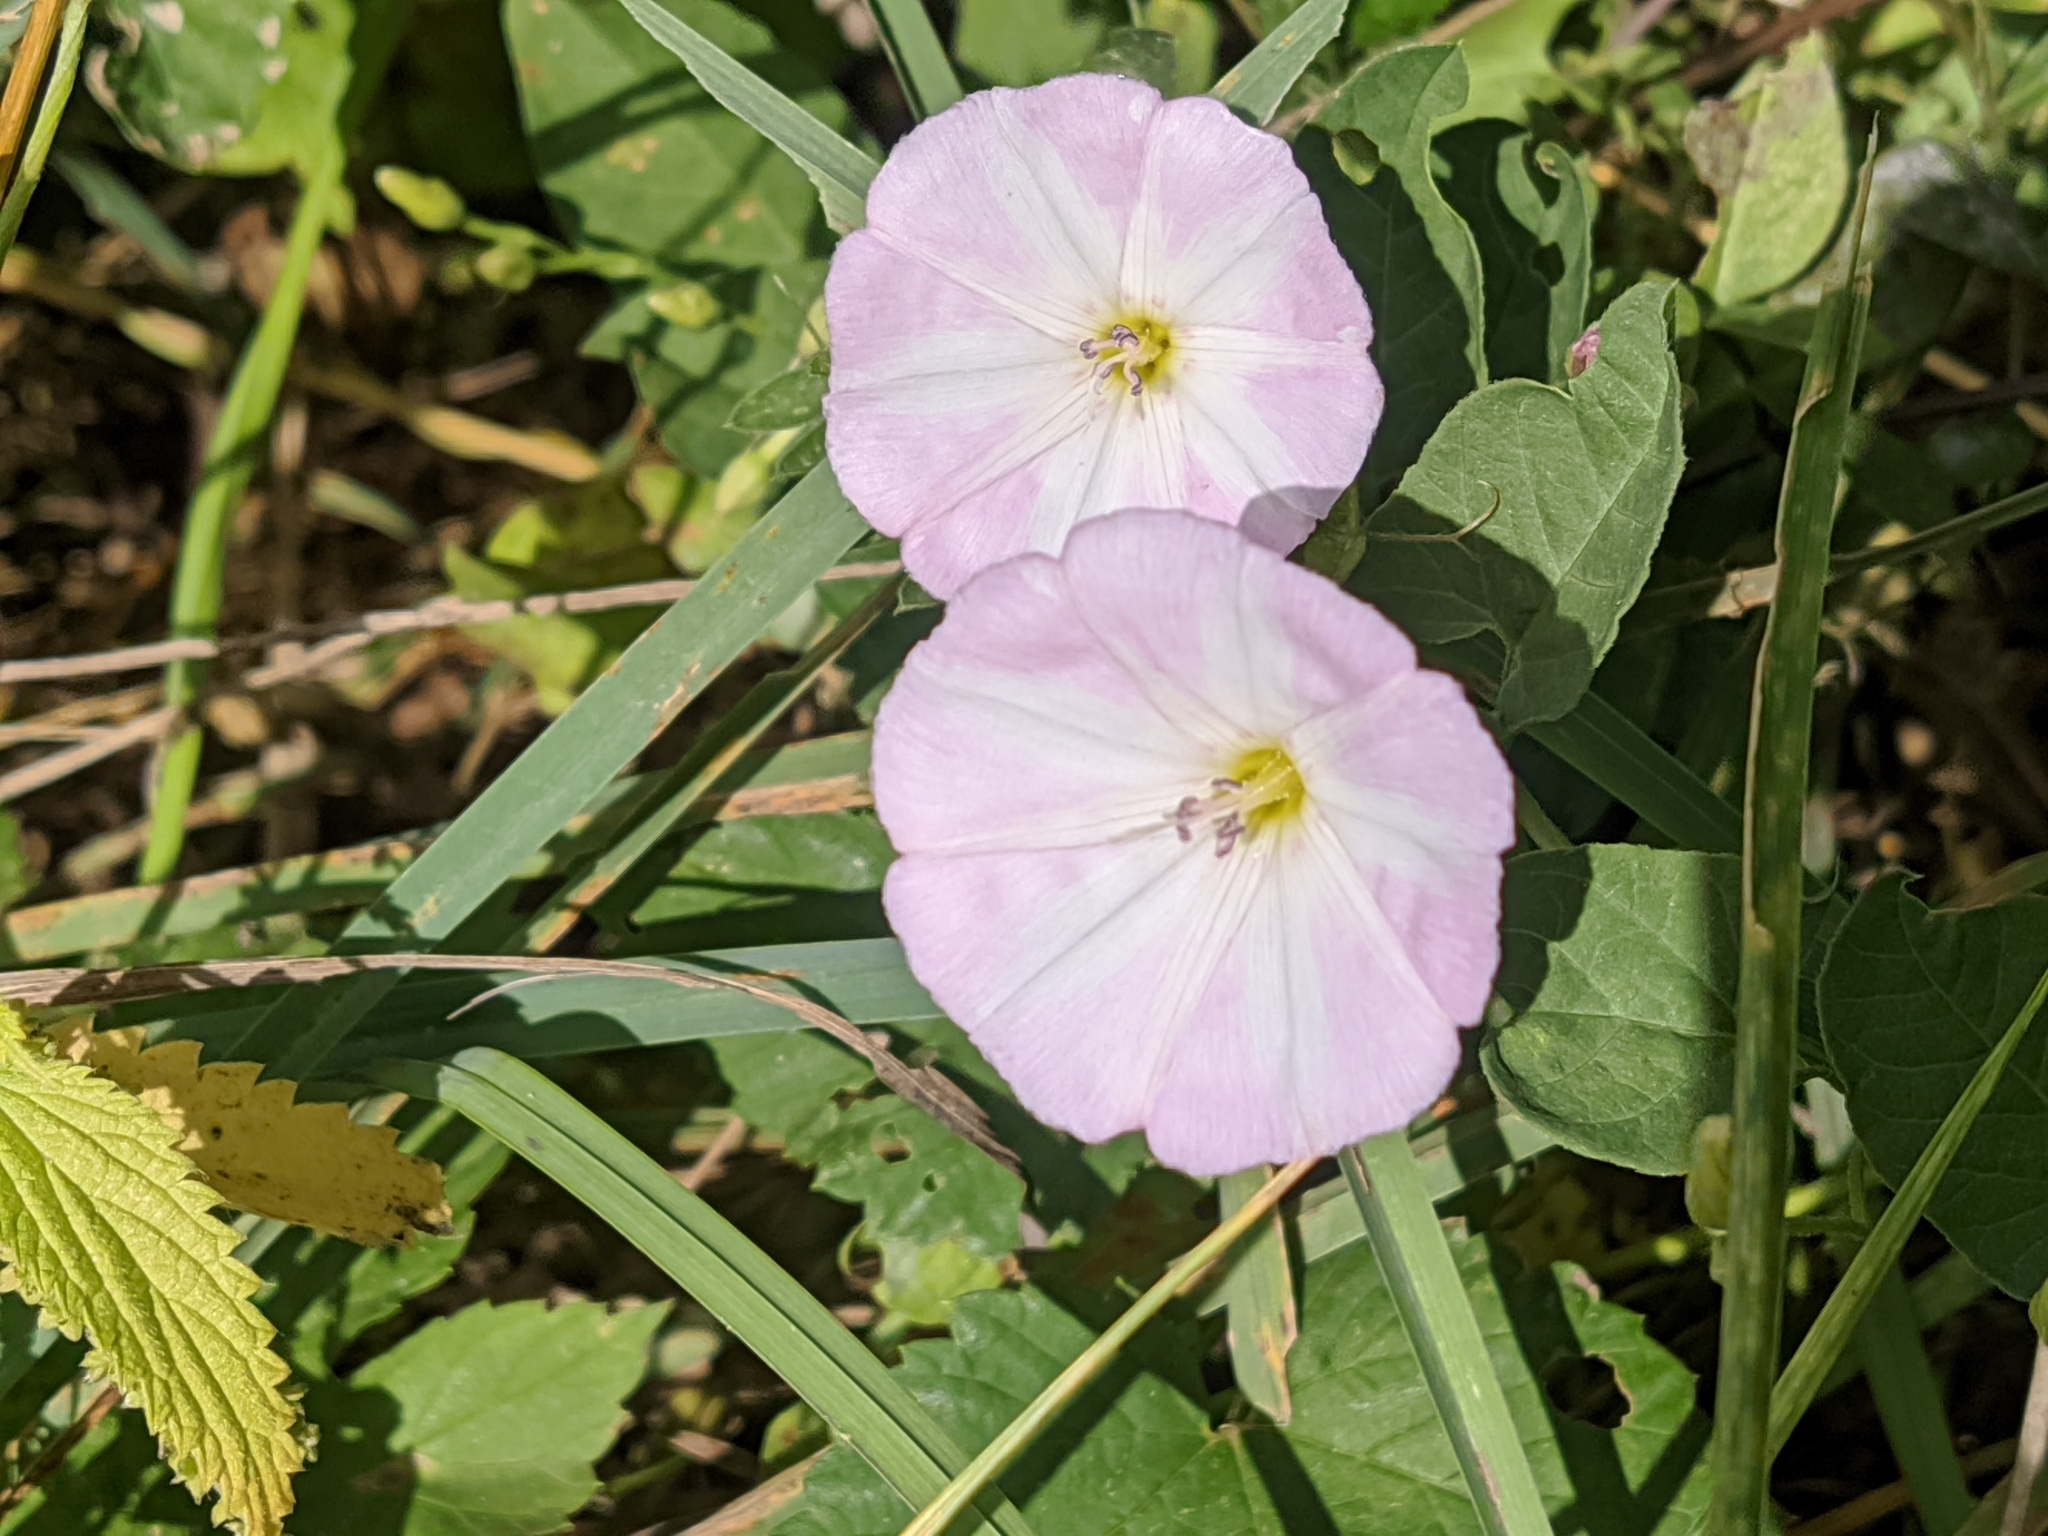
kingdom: Plantae
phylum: Tracheophyta
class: Magnoliopsida
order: Solanales
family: Convolvulaceae
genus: Convolvulus
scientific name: Convolvulus arvensis
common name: Field bindweed
